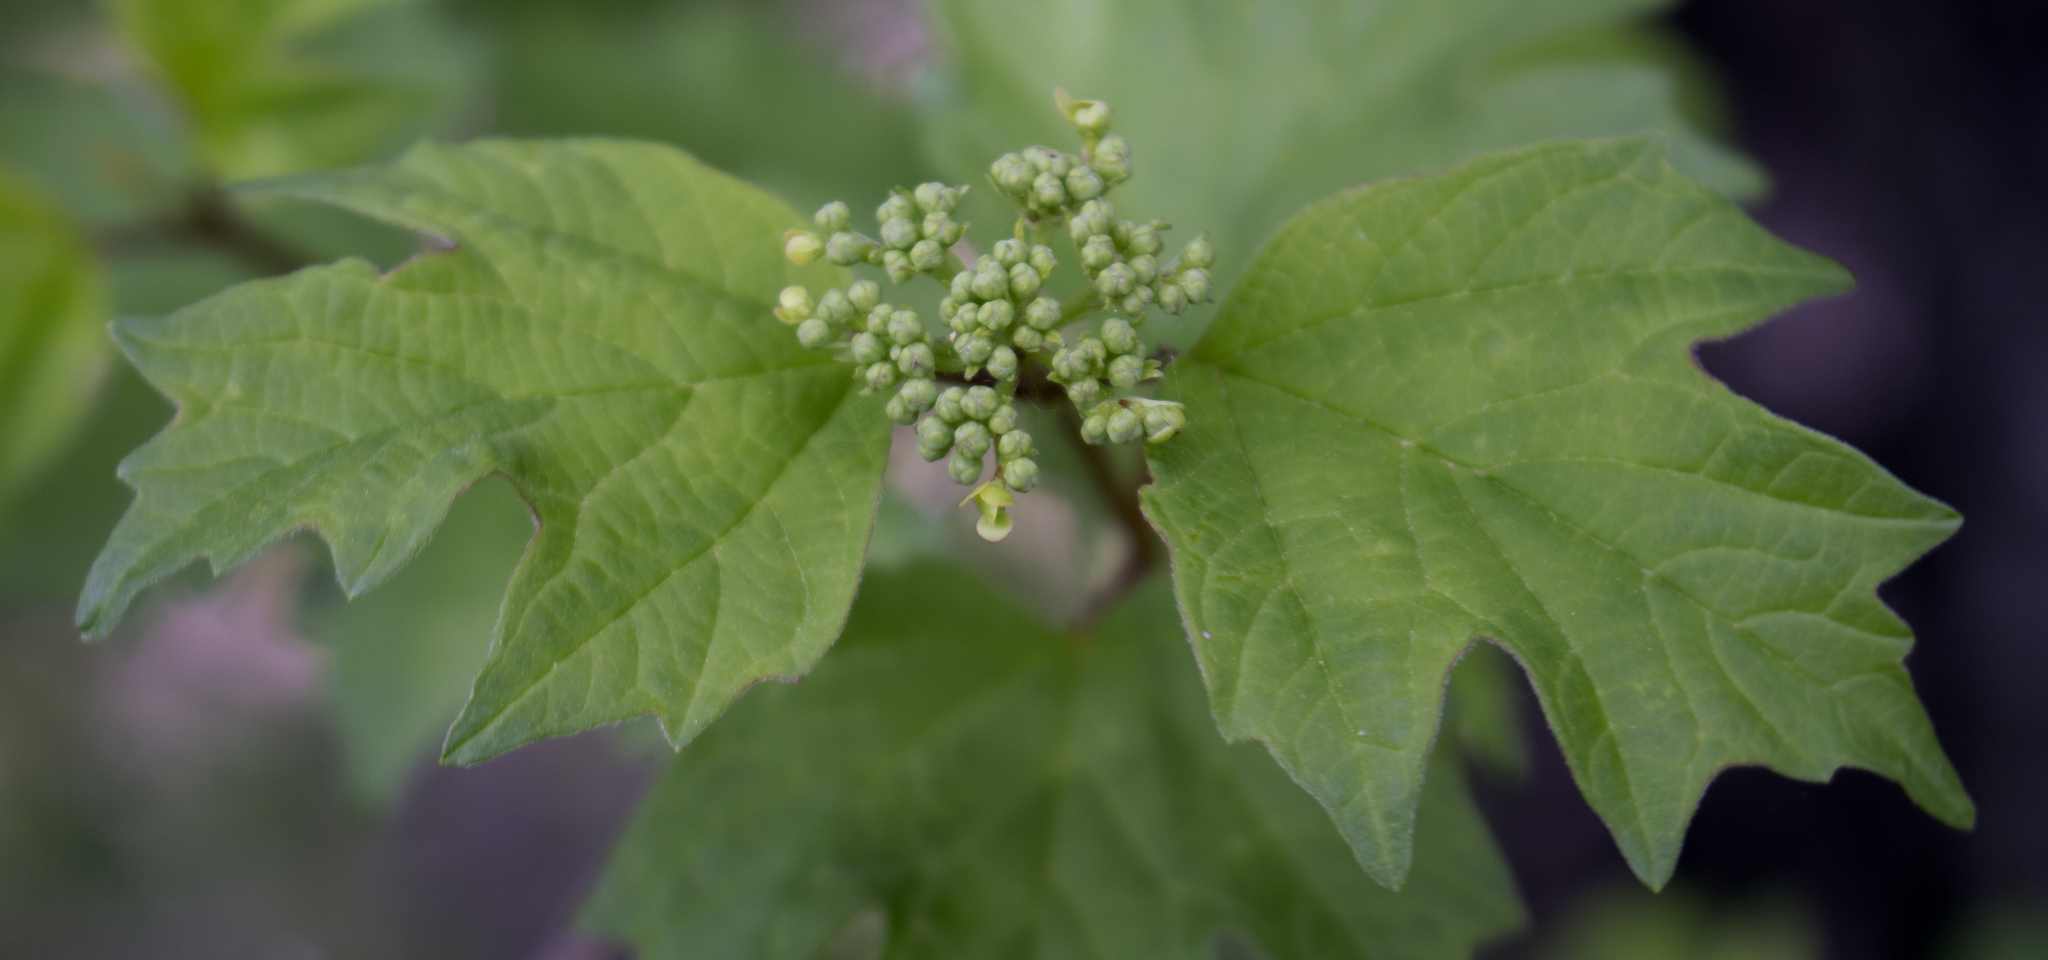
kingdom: Plantae
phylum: Tracheophyta
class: Magnoliopsida
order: Dipsacales
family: Viburnaceae
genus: Viburnum
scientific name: Viburnum opulus
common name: Guelder-rose
